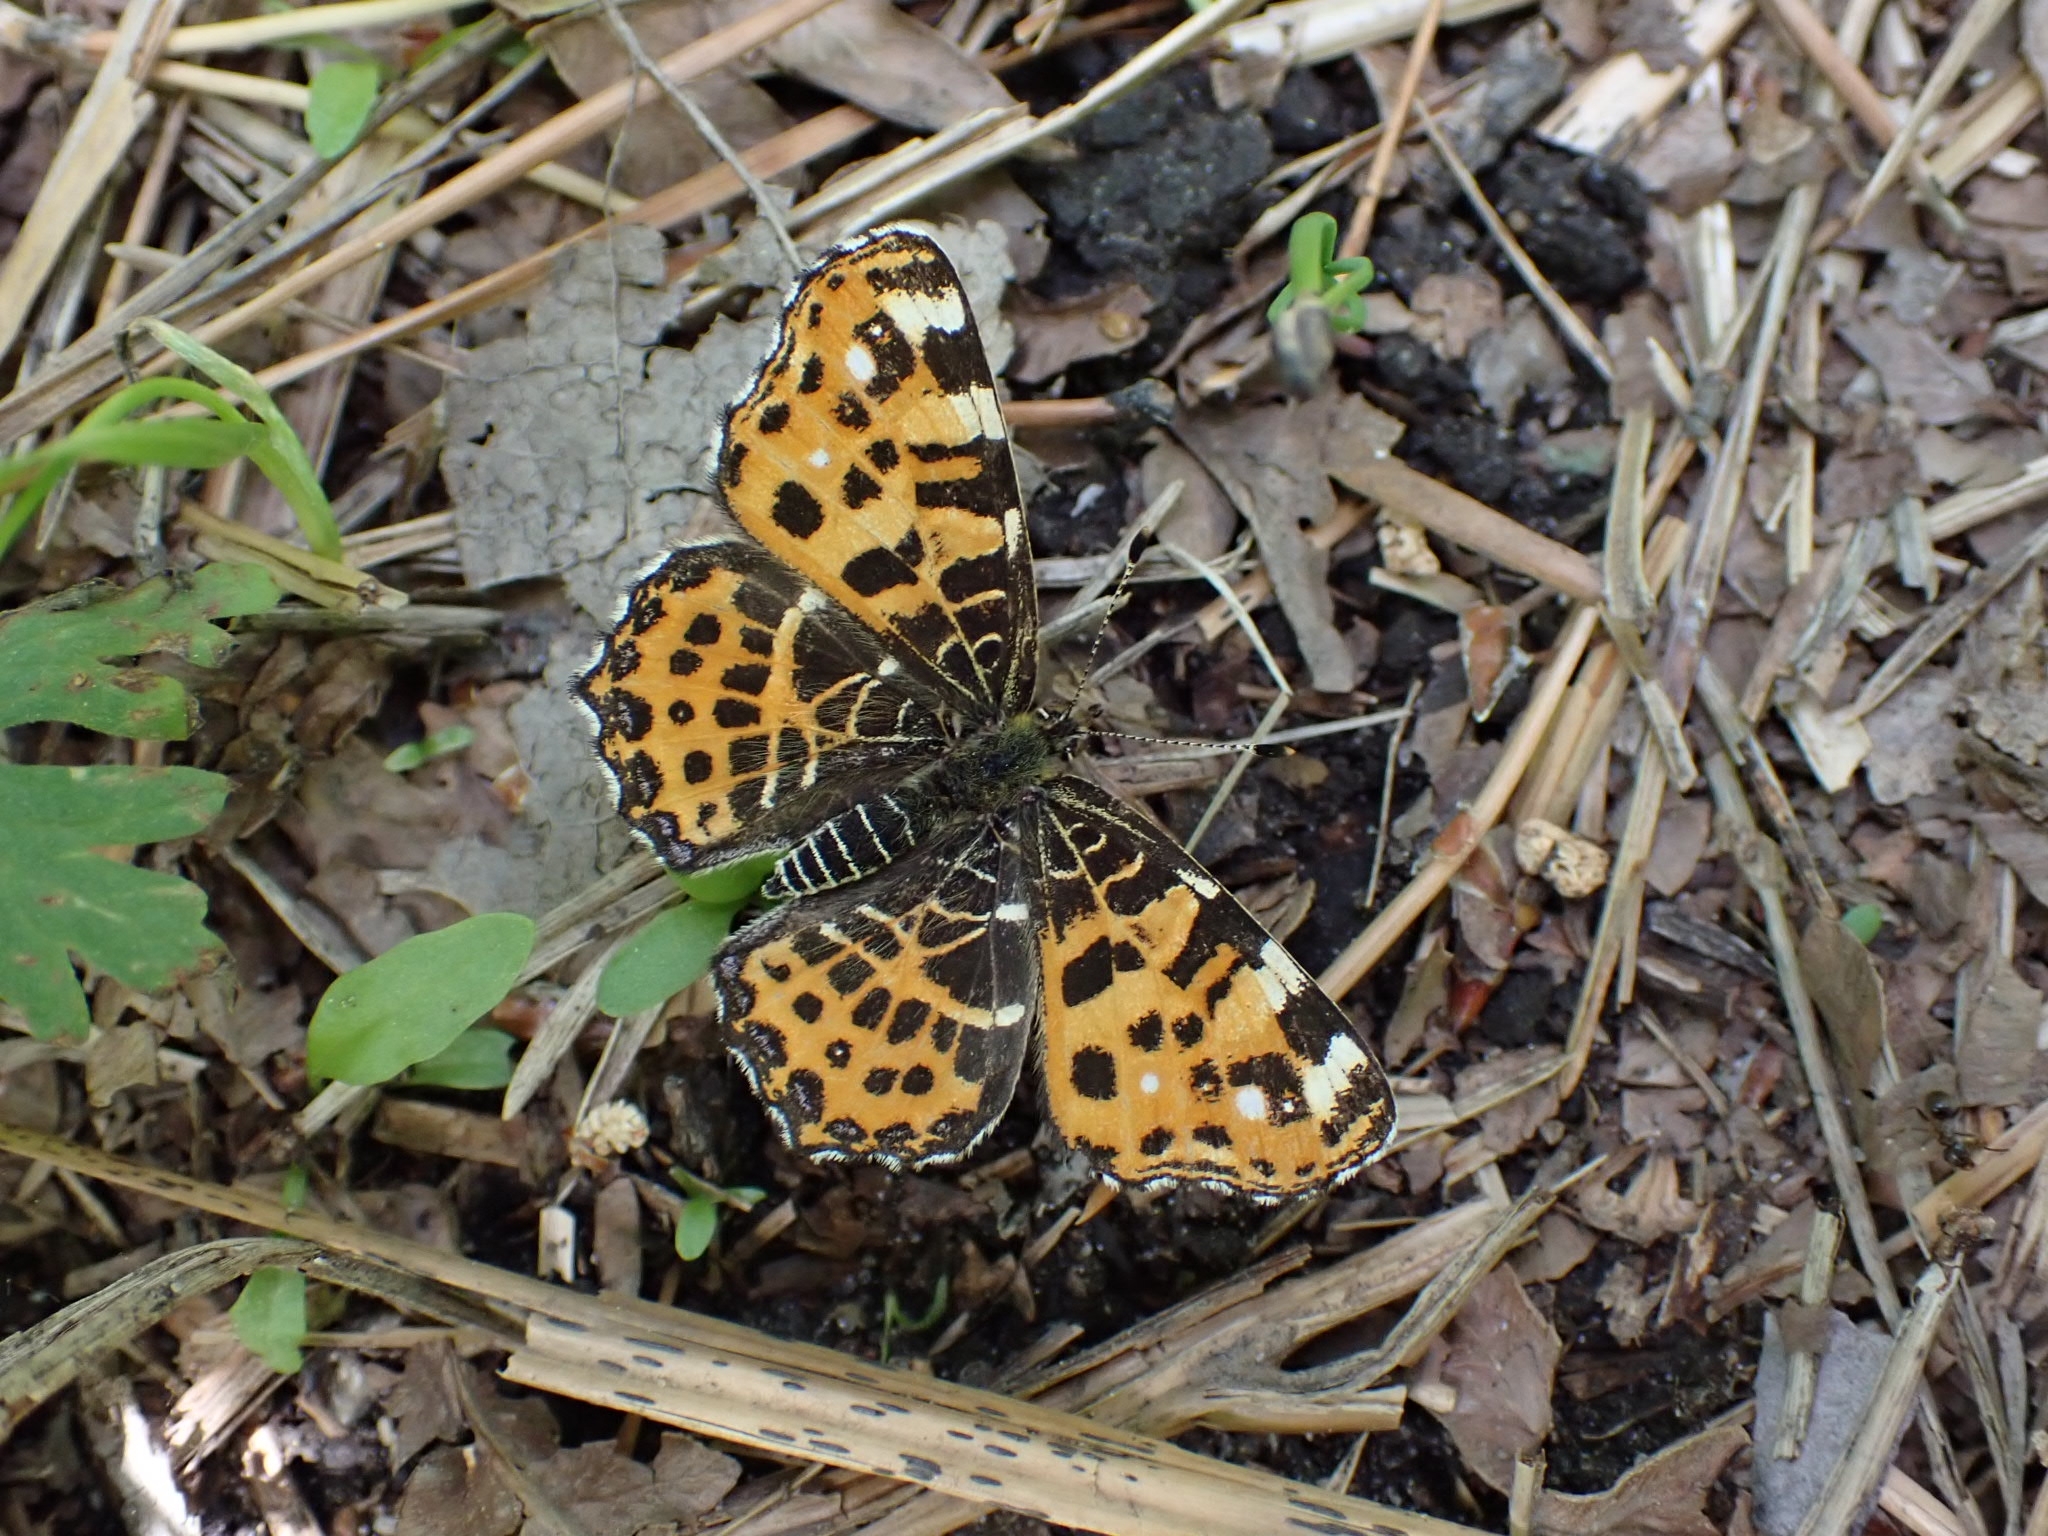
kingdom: Animalia
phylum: Arthropoda
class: Insecta
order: Lepidoptera
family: Nymphalidae
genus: Araschnia
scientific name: Araschnia levana
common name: Map butterfly
